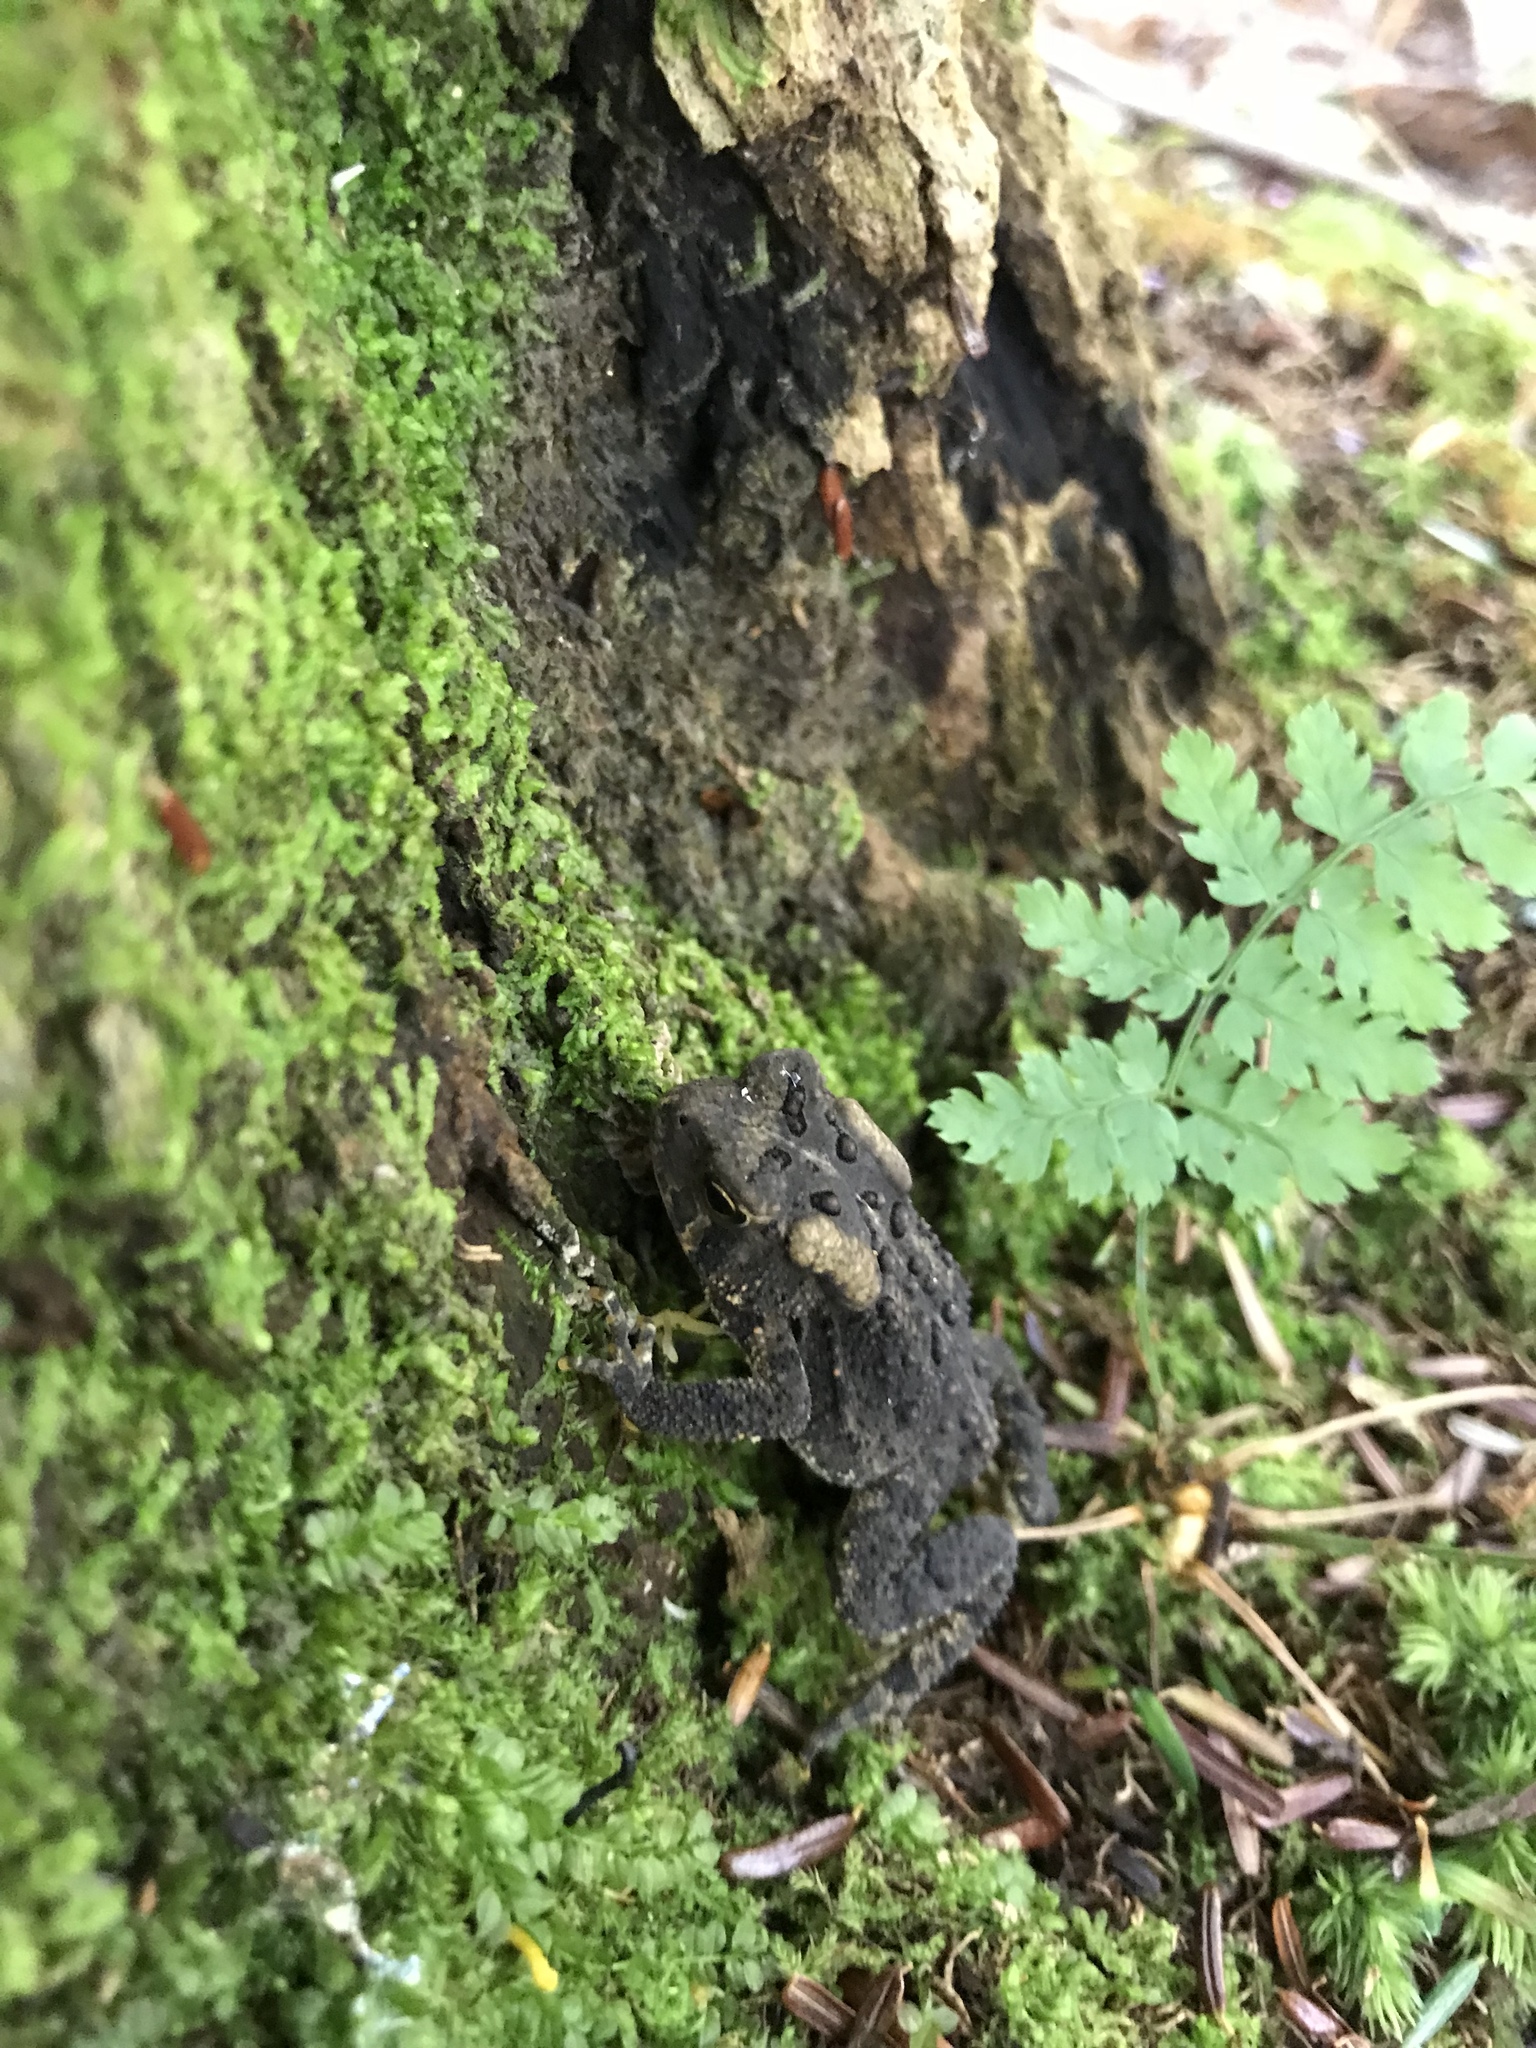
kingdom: Animalia
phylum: Chordata
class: Amphibia
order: Anura
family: Bufonidae
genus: Anaxyrus
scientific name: Anaxyrus americanus
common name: American toad
